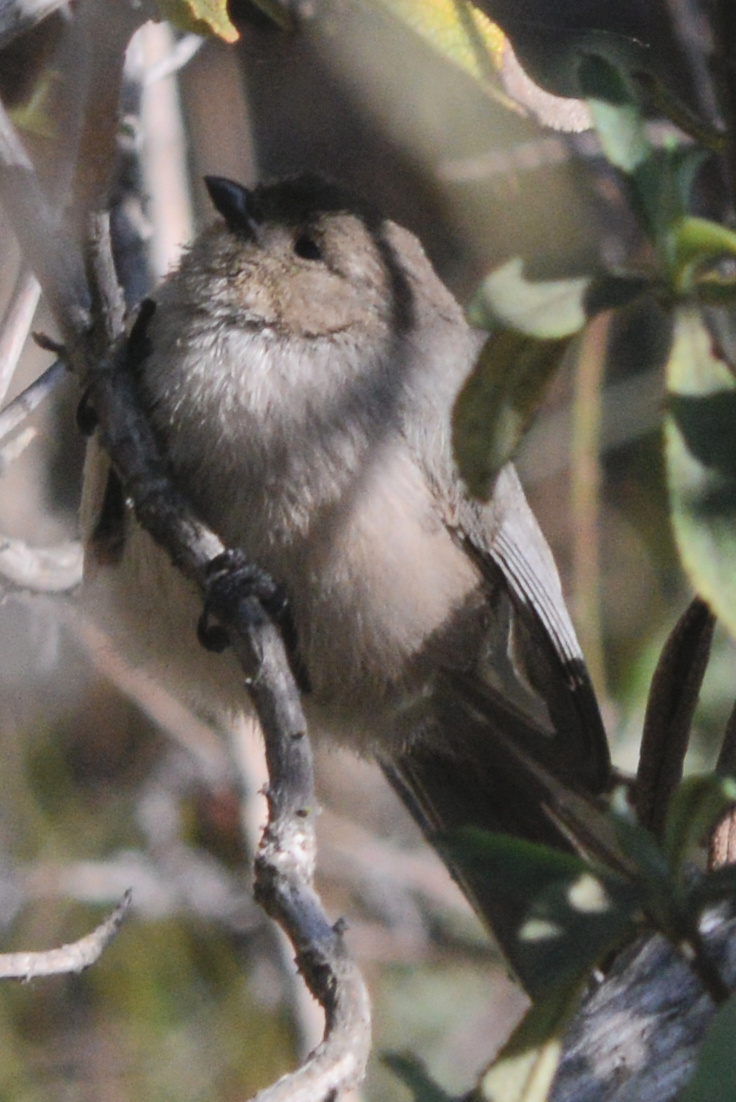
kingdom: Animalia
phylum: Chordata
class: Aves
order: Passeriformes
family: Aegithalidae
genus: Psaltriparus
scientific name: Psaltriparus minimus
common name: American bushtit
